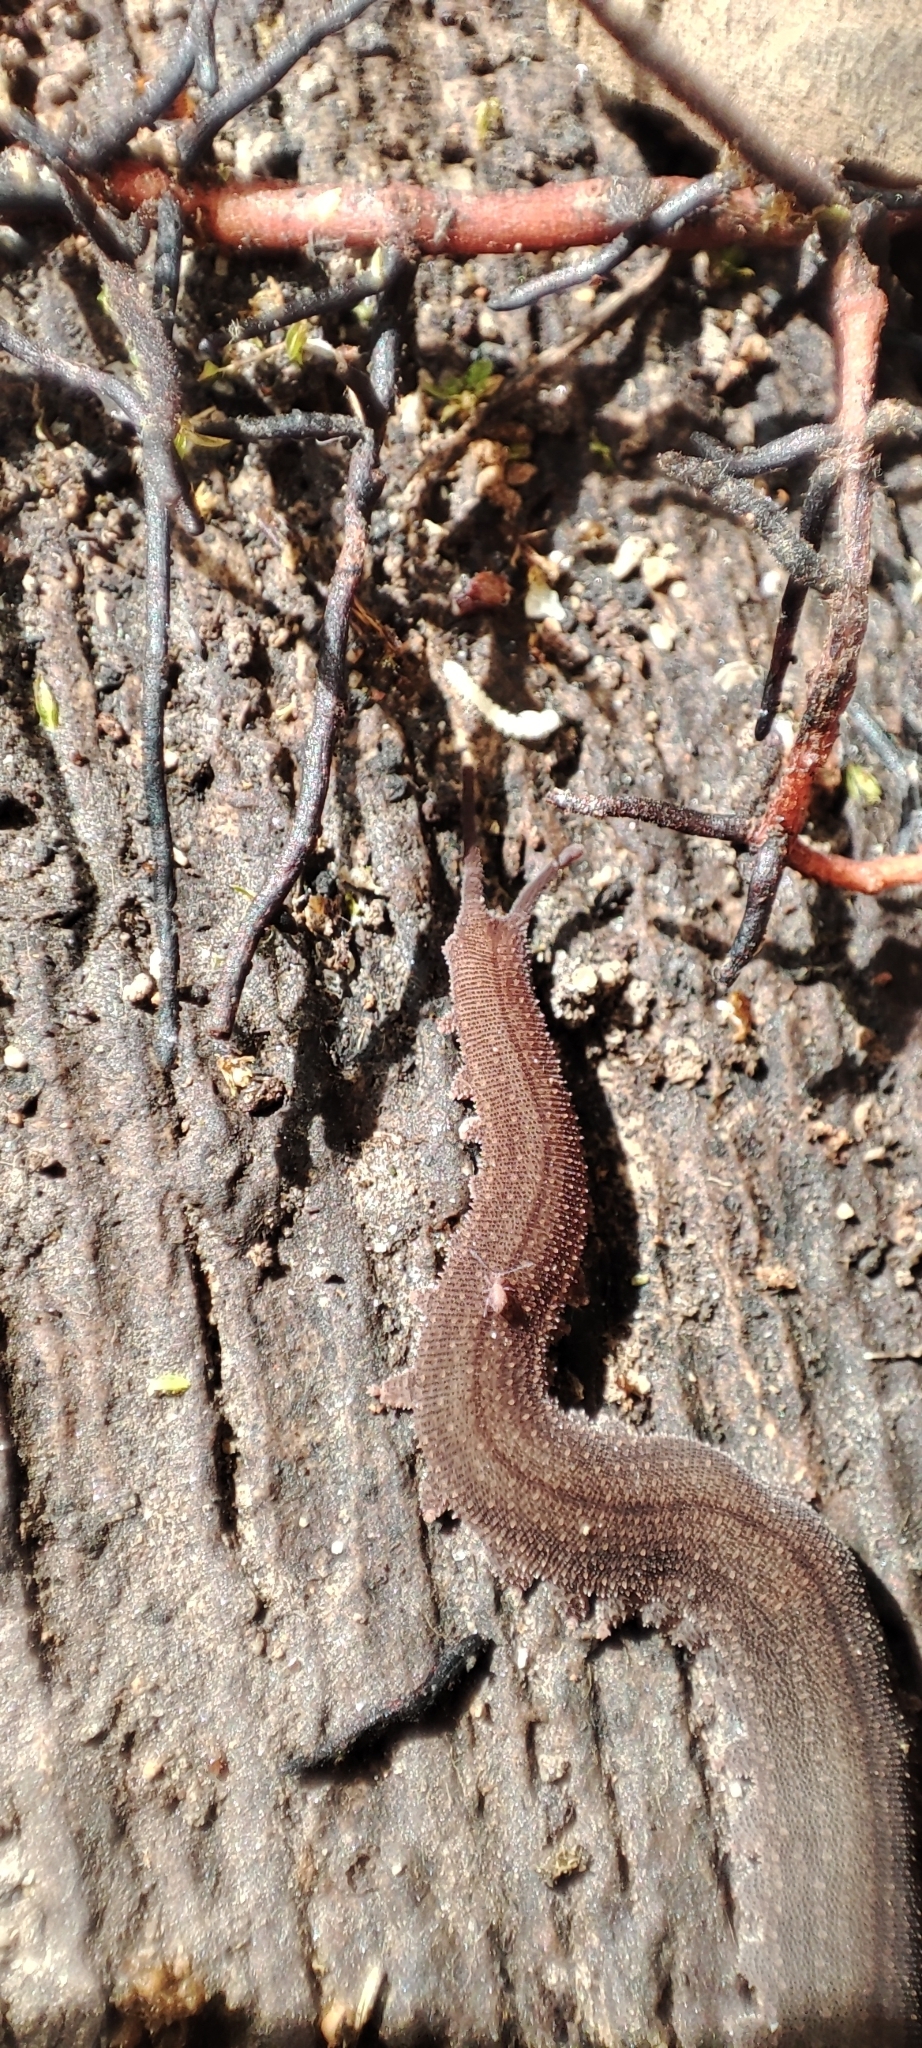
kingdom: Animalia
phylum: Onychophora
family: Peripatidae
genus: Oroperipatus
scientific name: Oroperipatus eisenii
